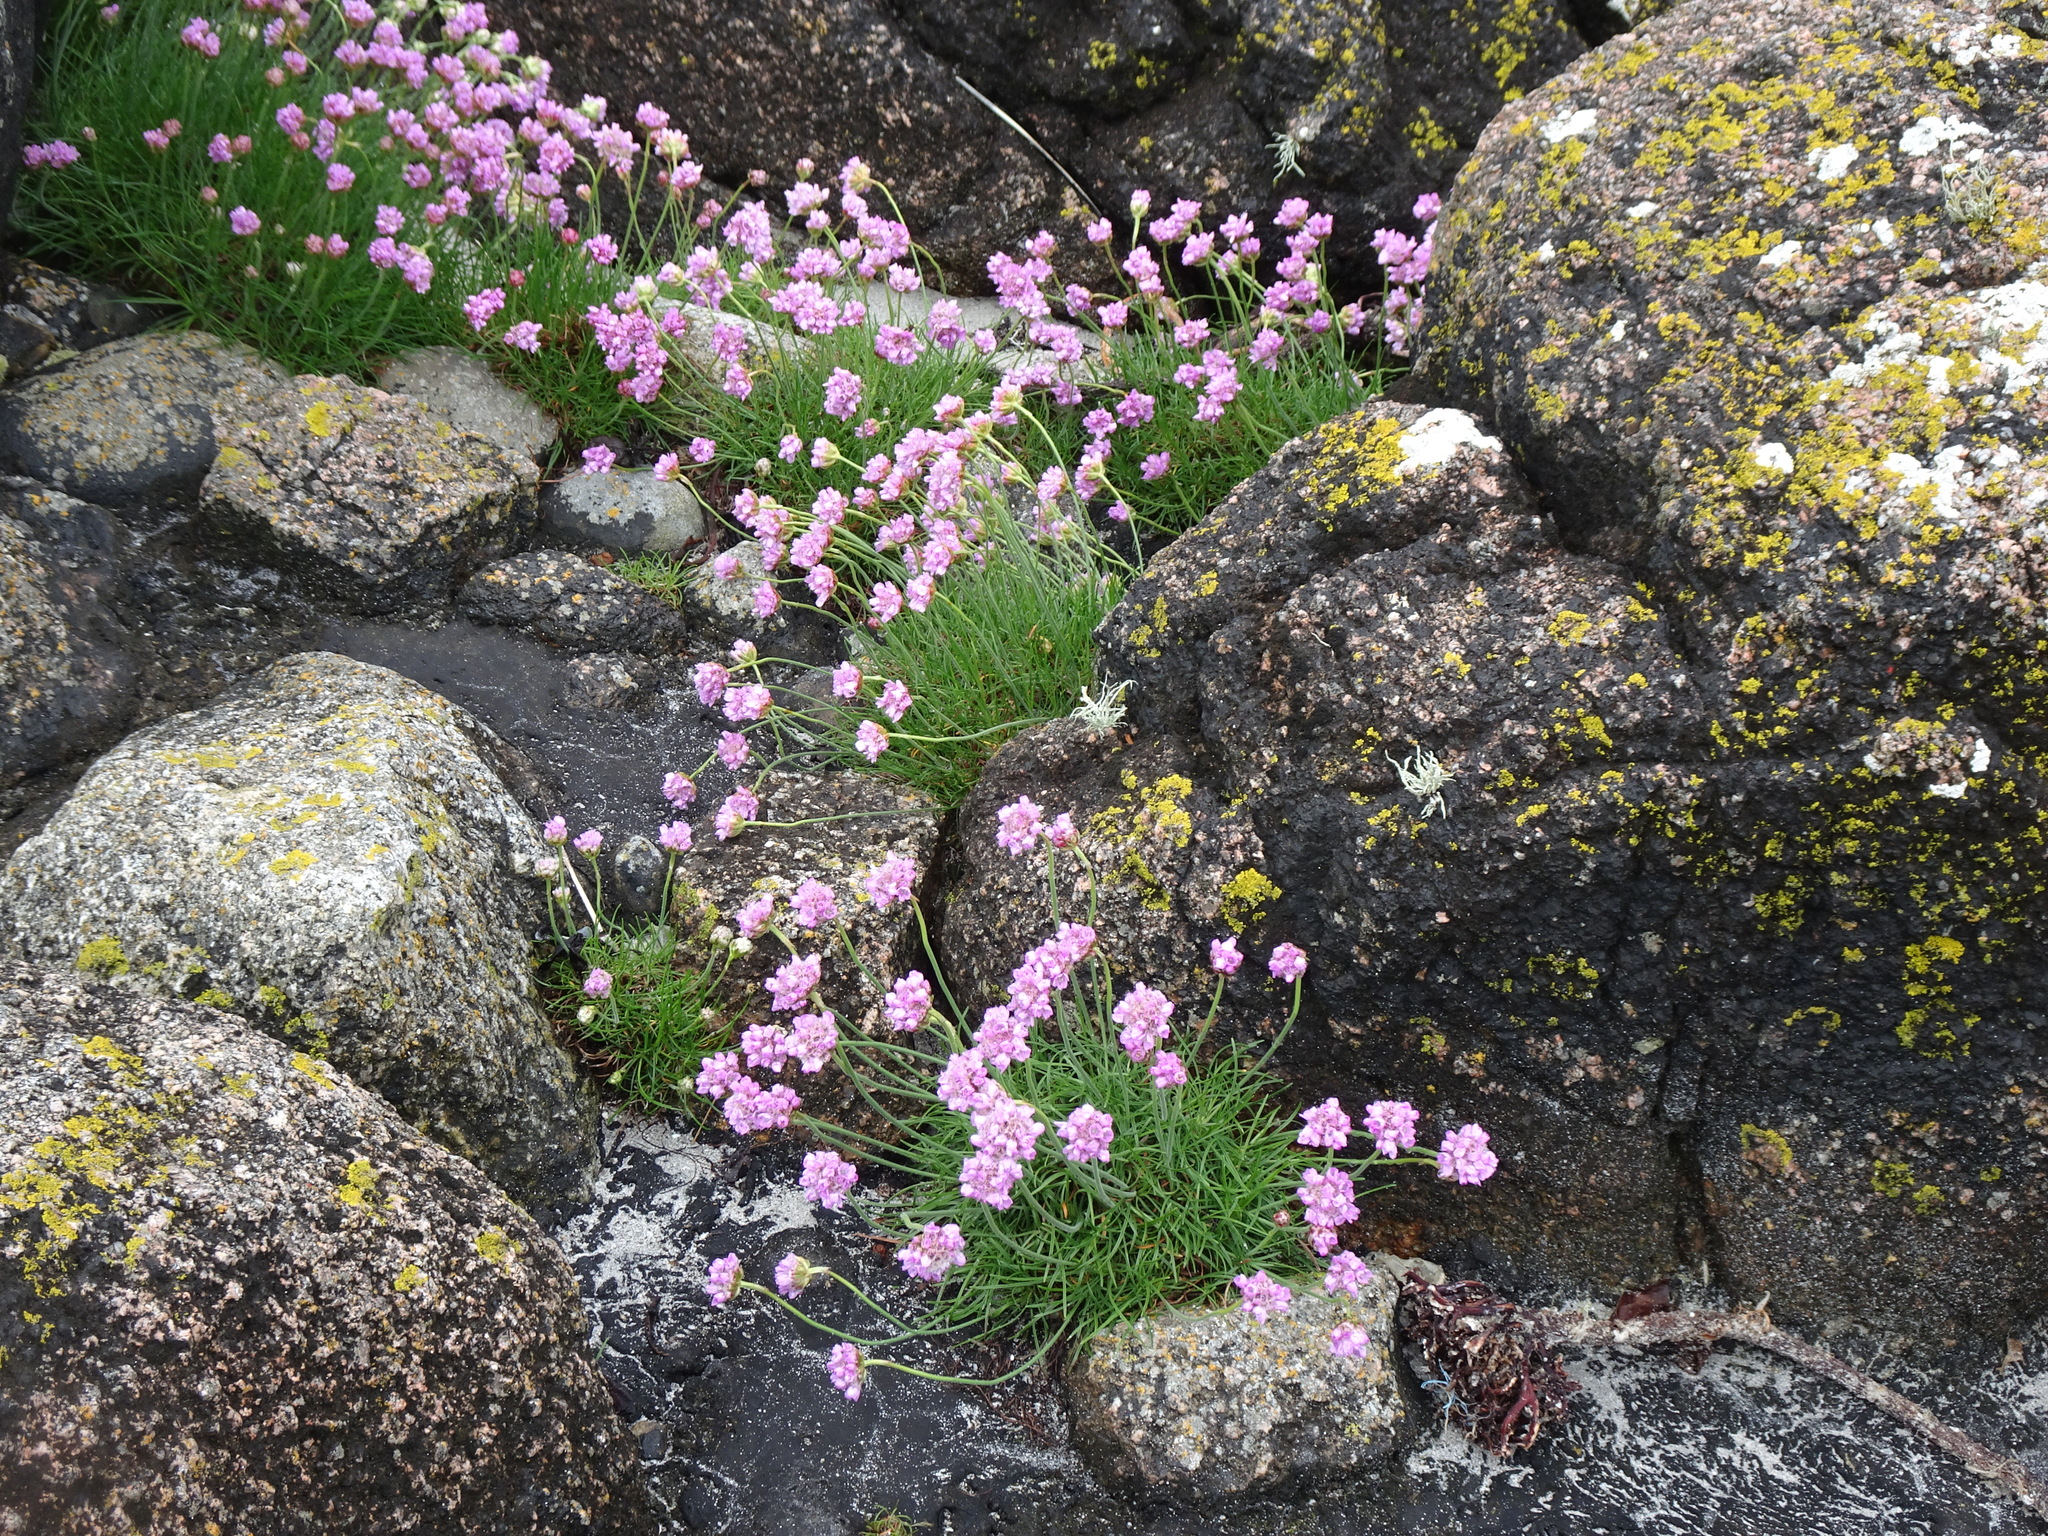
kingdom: Plantae
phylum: Tracheophyta
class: Magnoliopsida
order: Caryophyllales
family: Plumbaginaceae
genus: Armeria
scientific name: Armeria maritima
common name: Thrift
